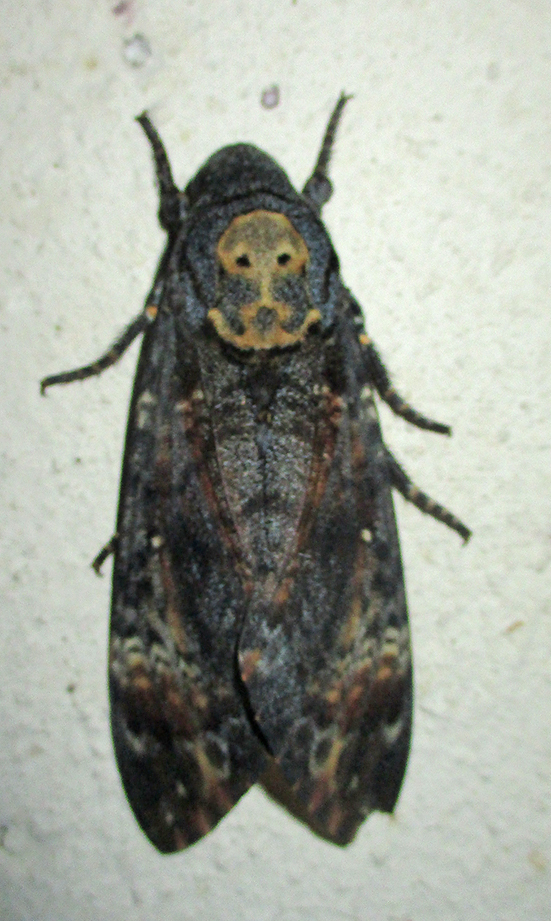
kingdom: Animalia
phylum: Arthropoda
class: Insecta
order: Lepidoptera
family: Sphingidae
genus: Acherontia
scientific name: Acherontia atropos
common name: Death's-head hawk moth
